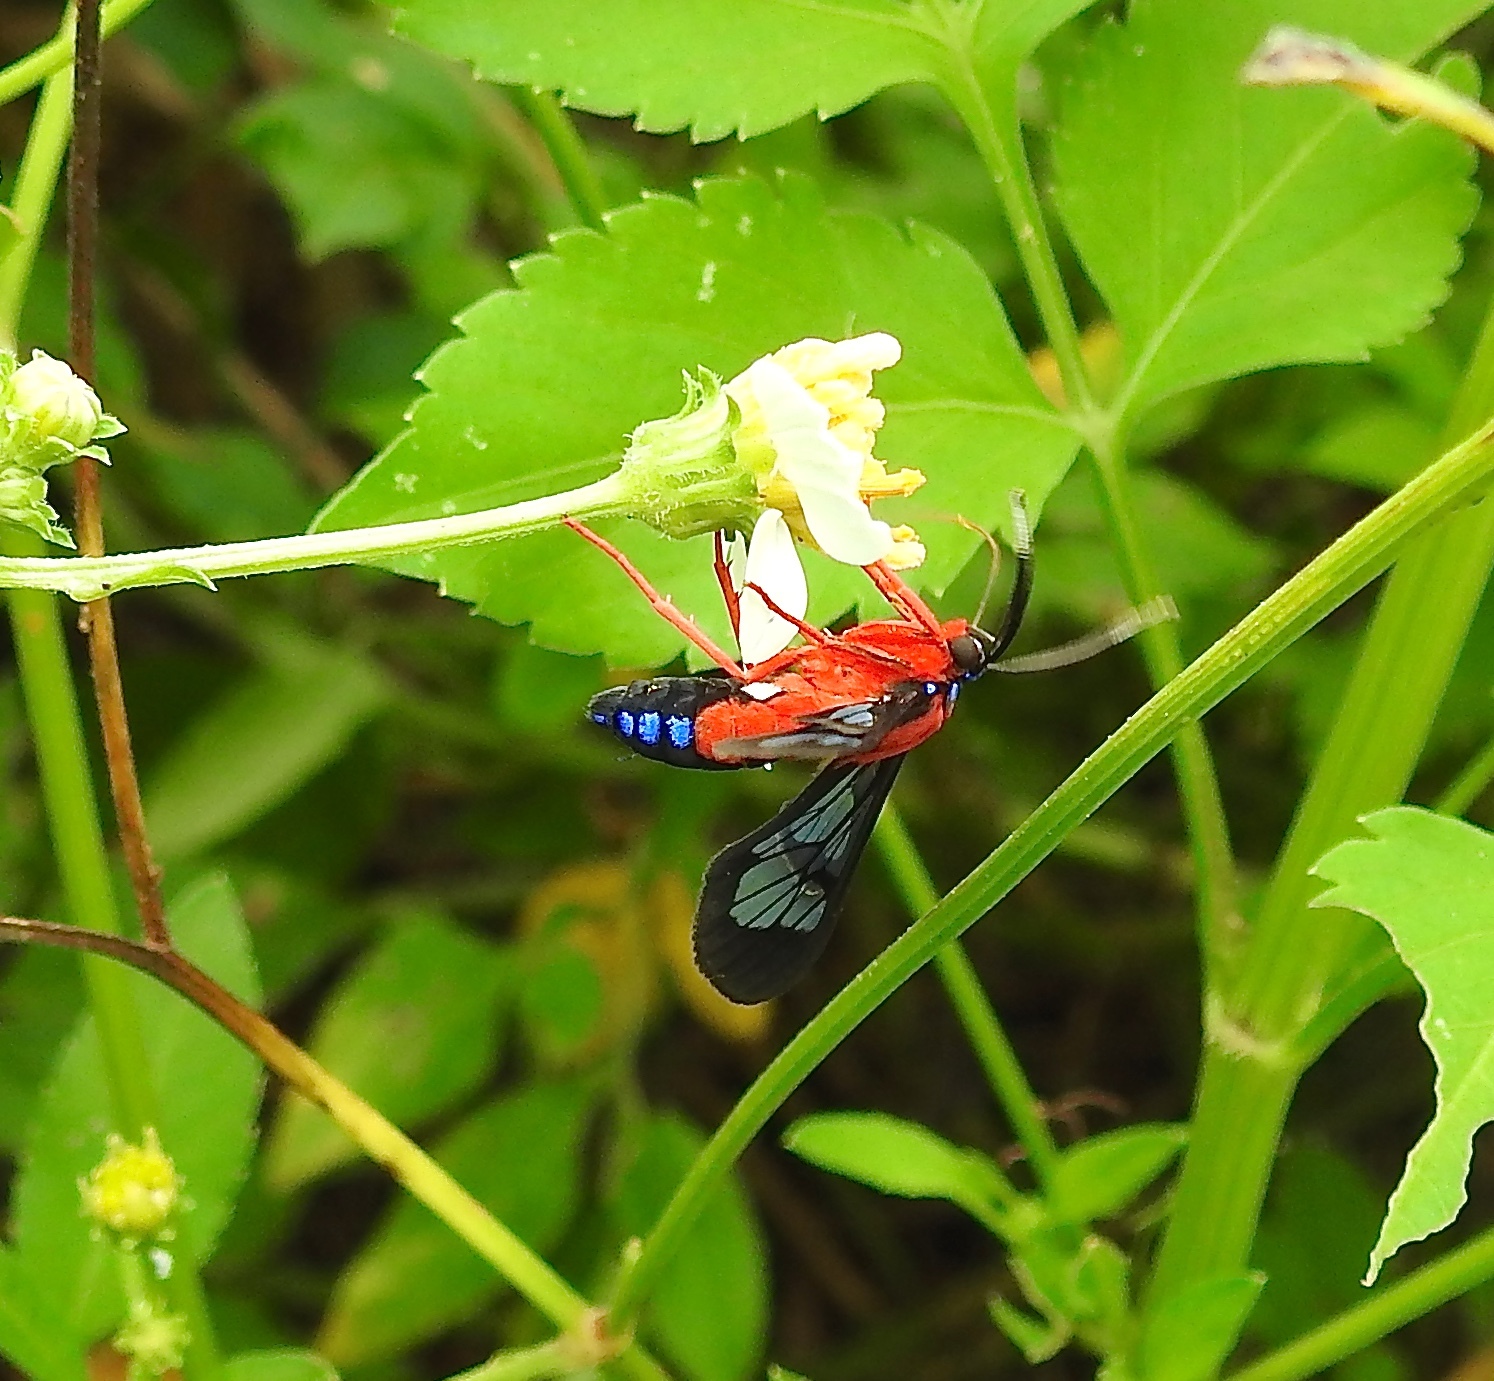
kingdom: Animalia
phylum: Arthropoda
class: Insecta
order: Lepidoptera
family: Erebidae
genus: Cosmosoma
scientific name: Cosmosoma myrodora
